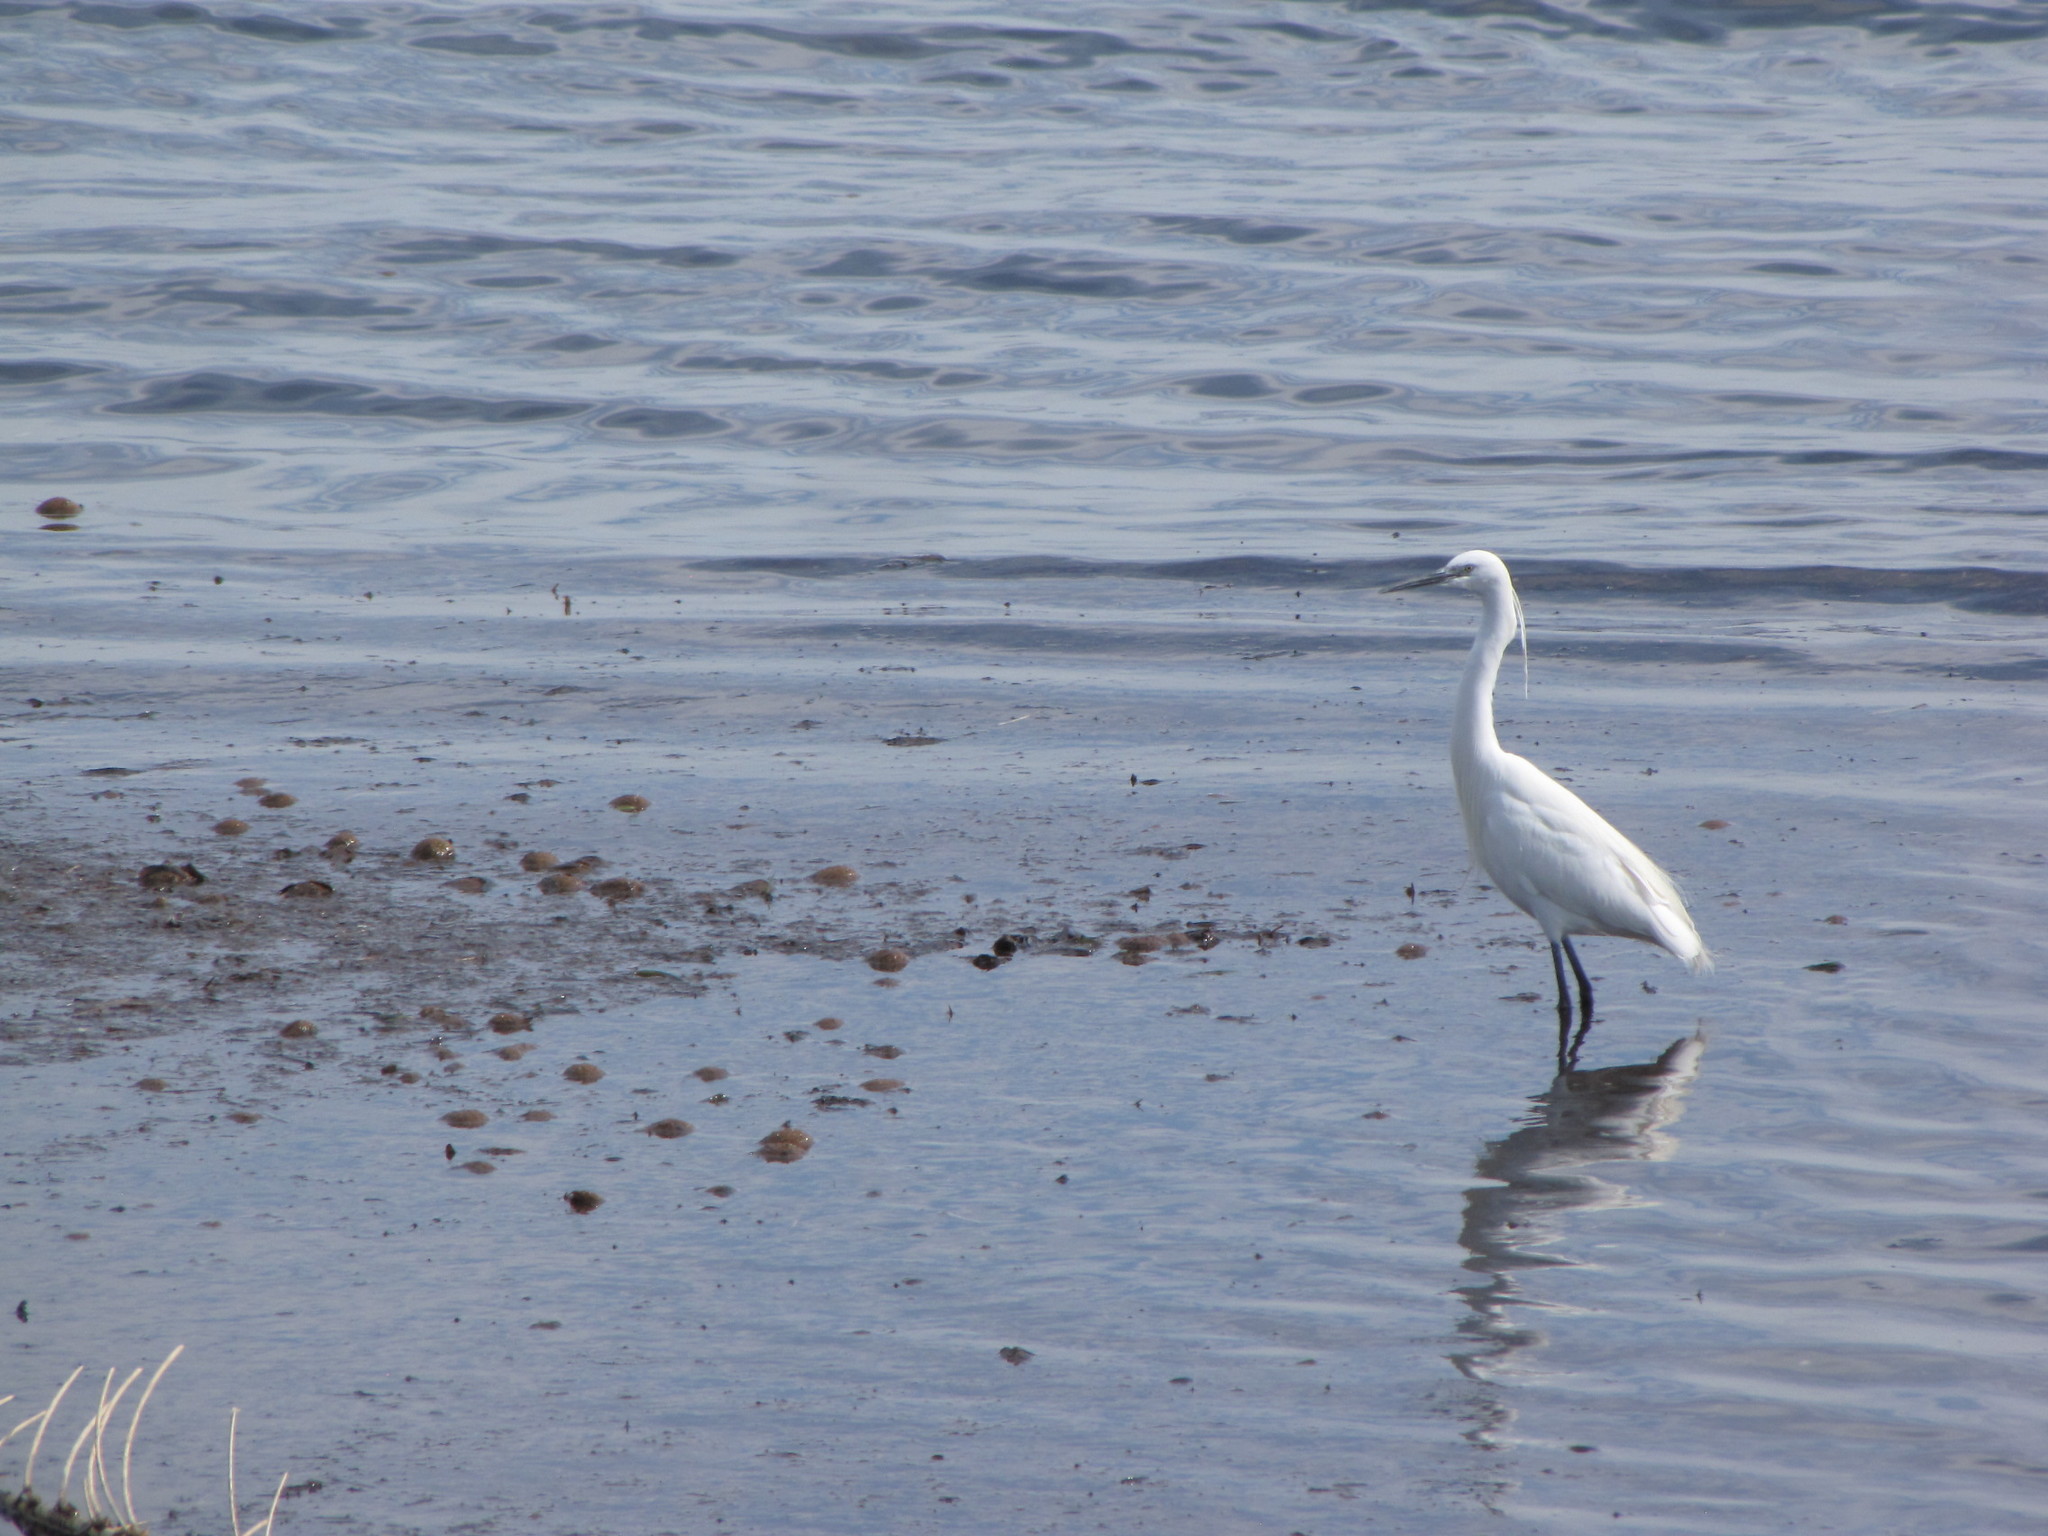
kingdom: Animalia
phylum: Chordata
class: Aves
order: Pelecaniformes
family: Ardeidae
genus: Egretta
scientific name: Egretta garzetta
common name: Little egret
